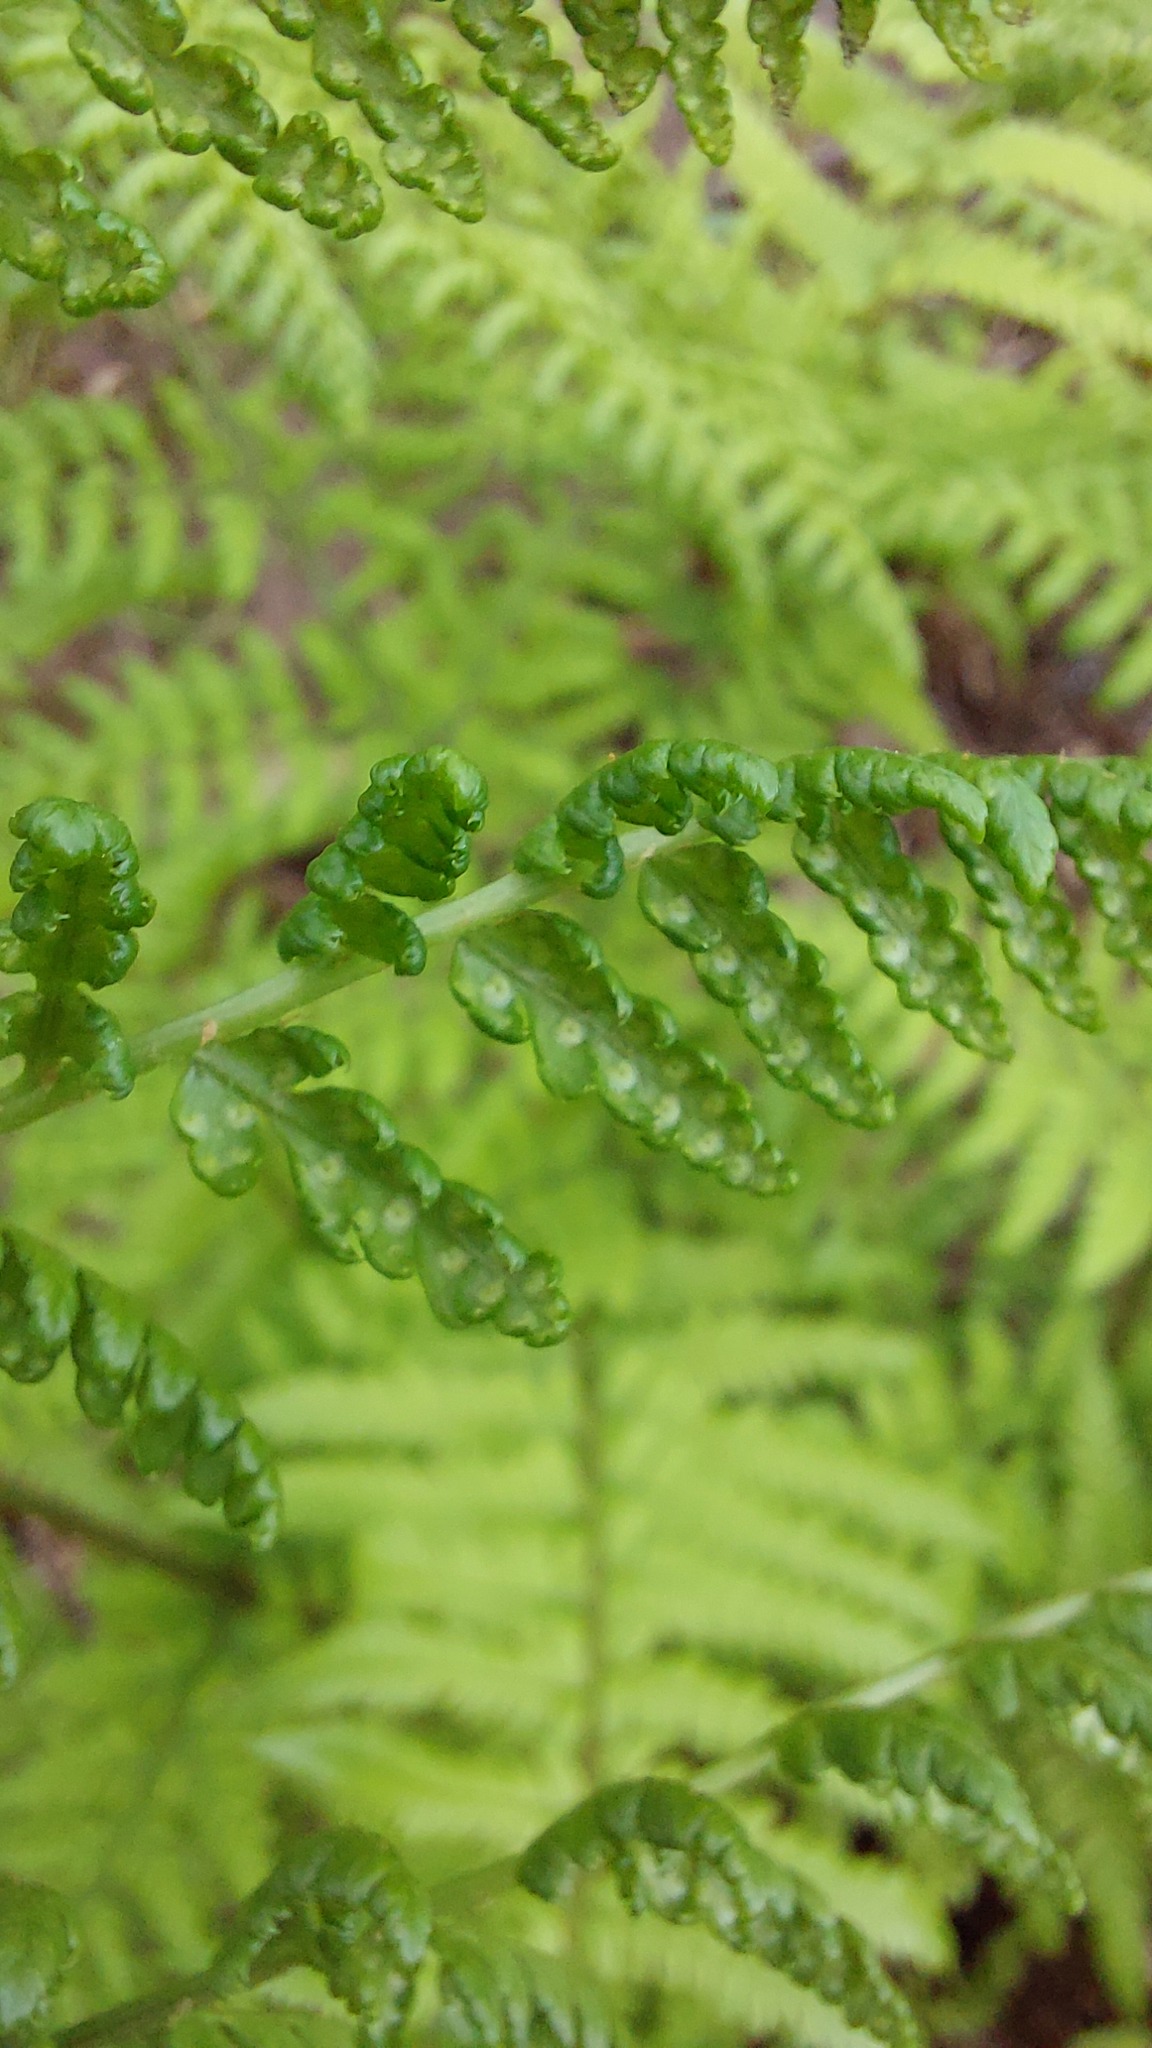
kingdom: Plantae
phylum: Tracheophyta
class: Polypodiopsida
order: Polypodiales
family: Dryopteridaceae
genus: Dryopteris
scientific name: Dryopteris dilatata
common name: Broad buckler-fern
